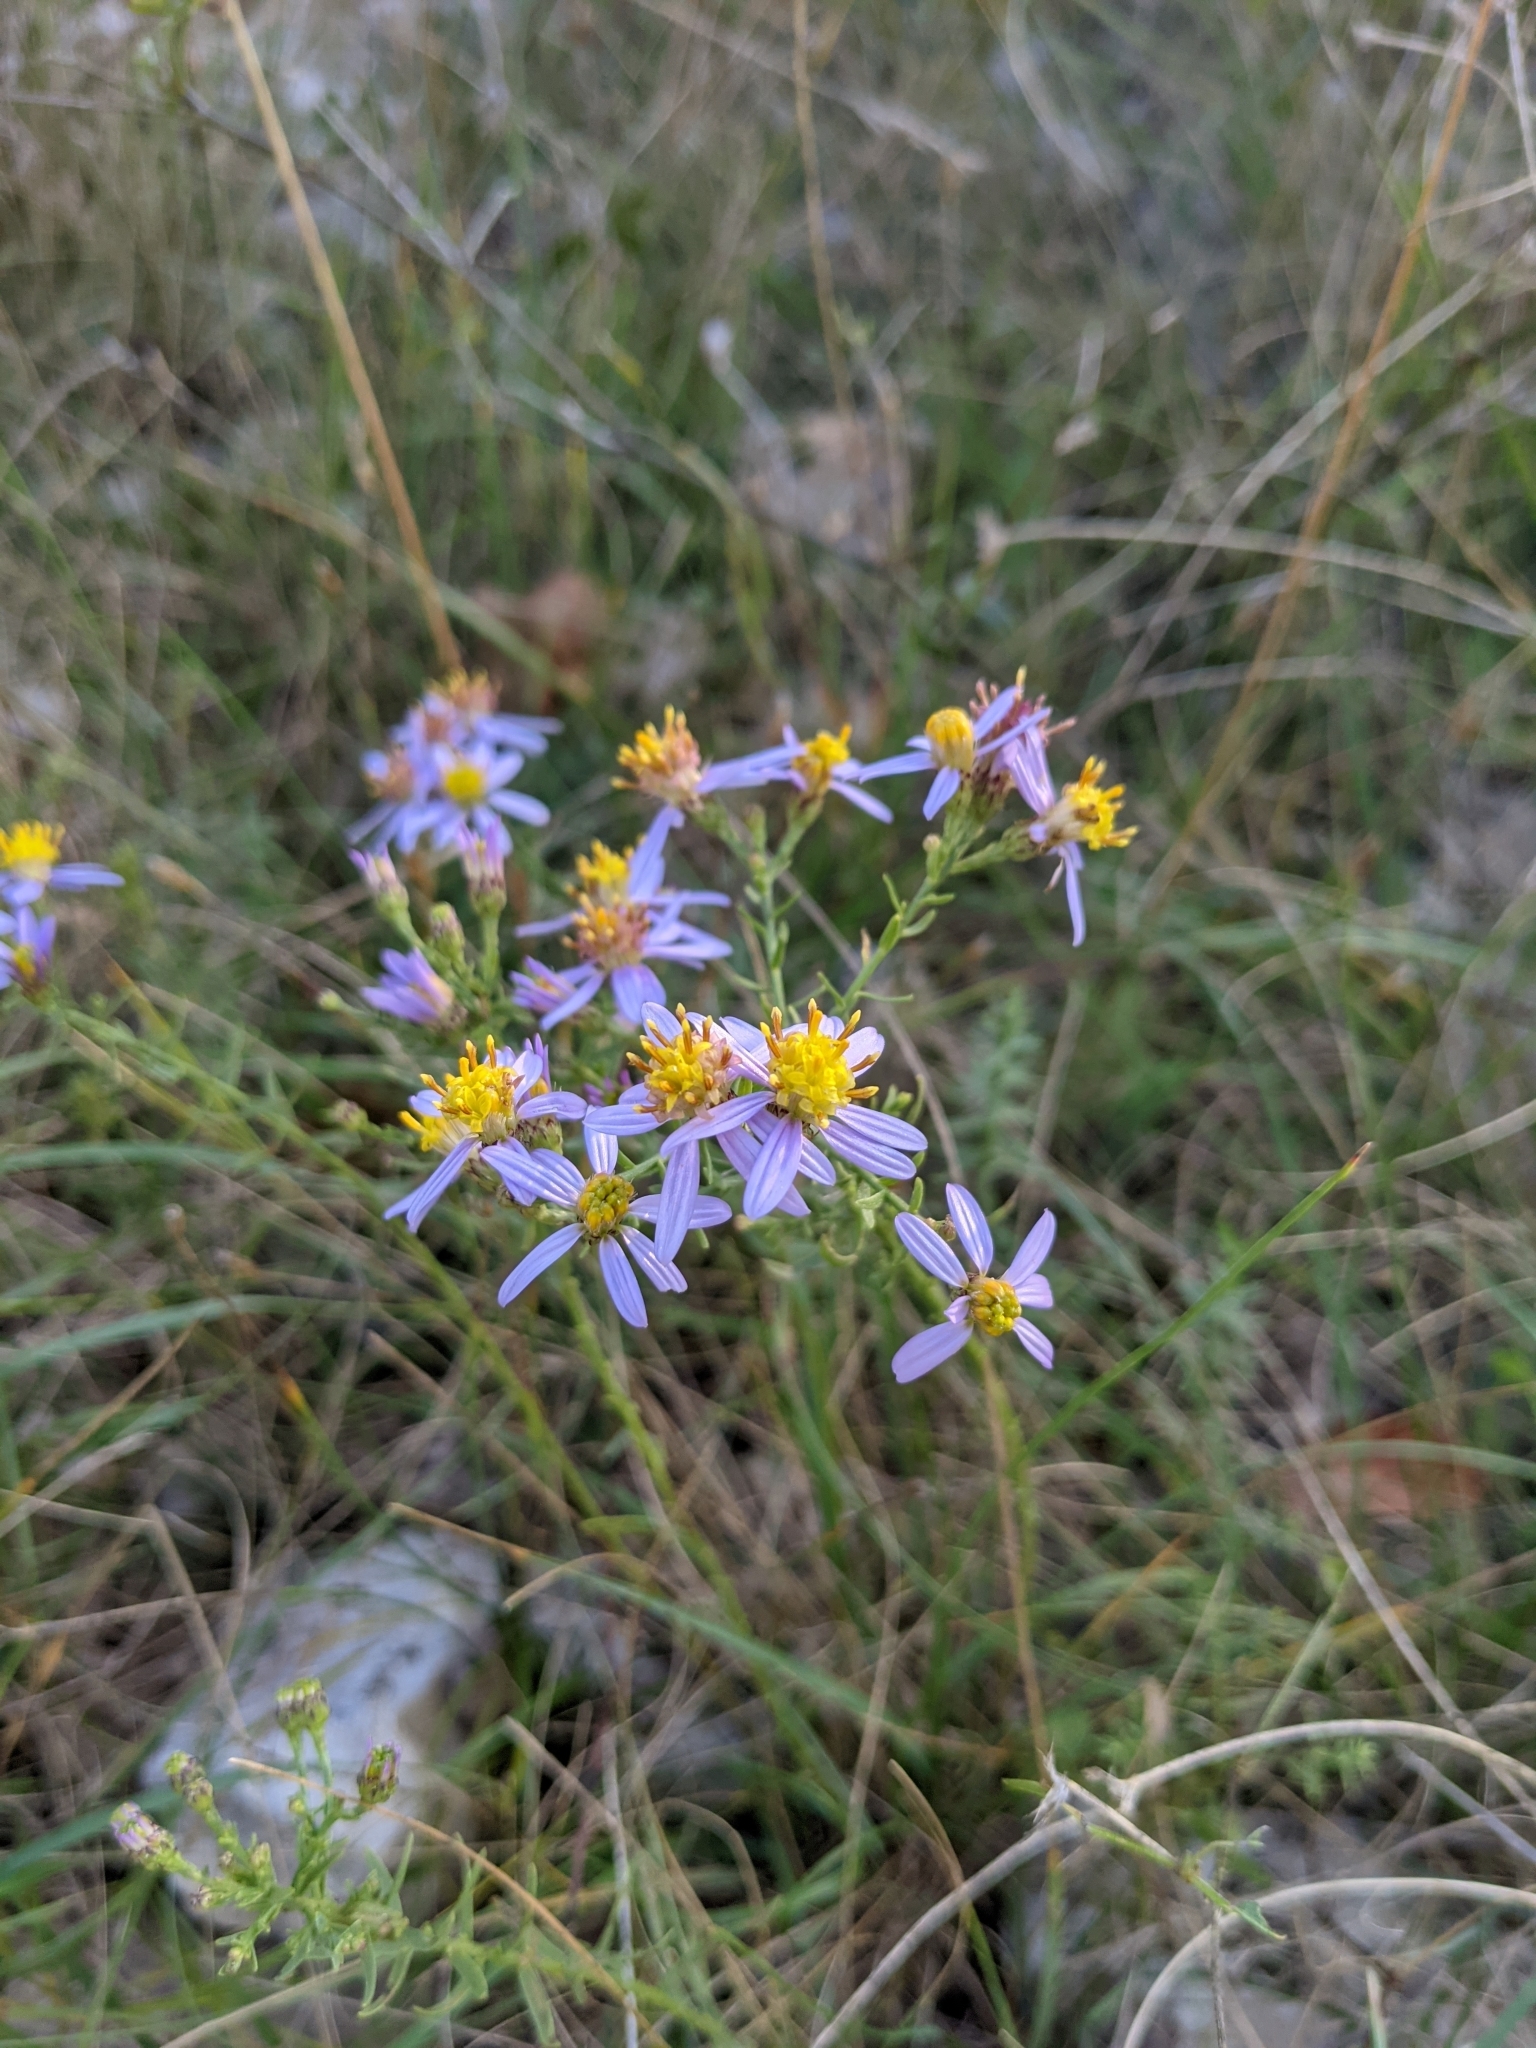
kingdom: Plantae
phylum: Tracheophyta
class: Magnoliopsida
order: Asterales
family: Asteraceae
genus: Galatella
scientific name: Galatella sedifolia
